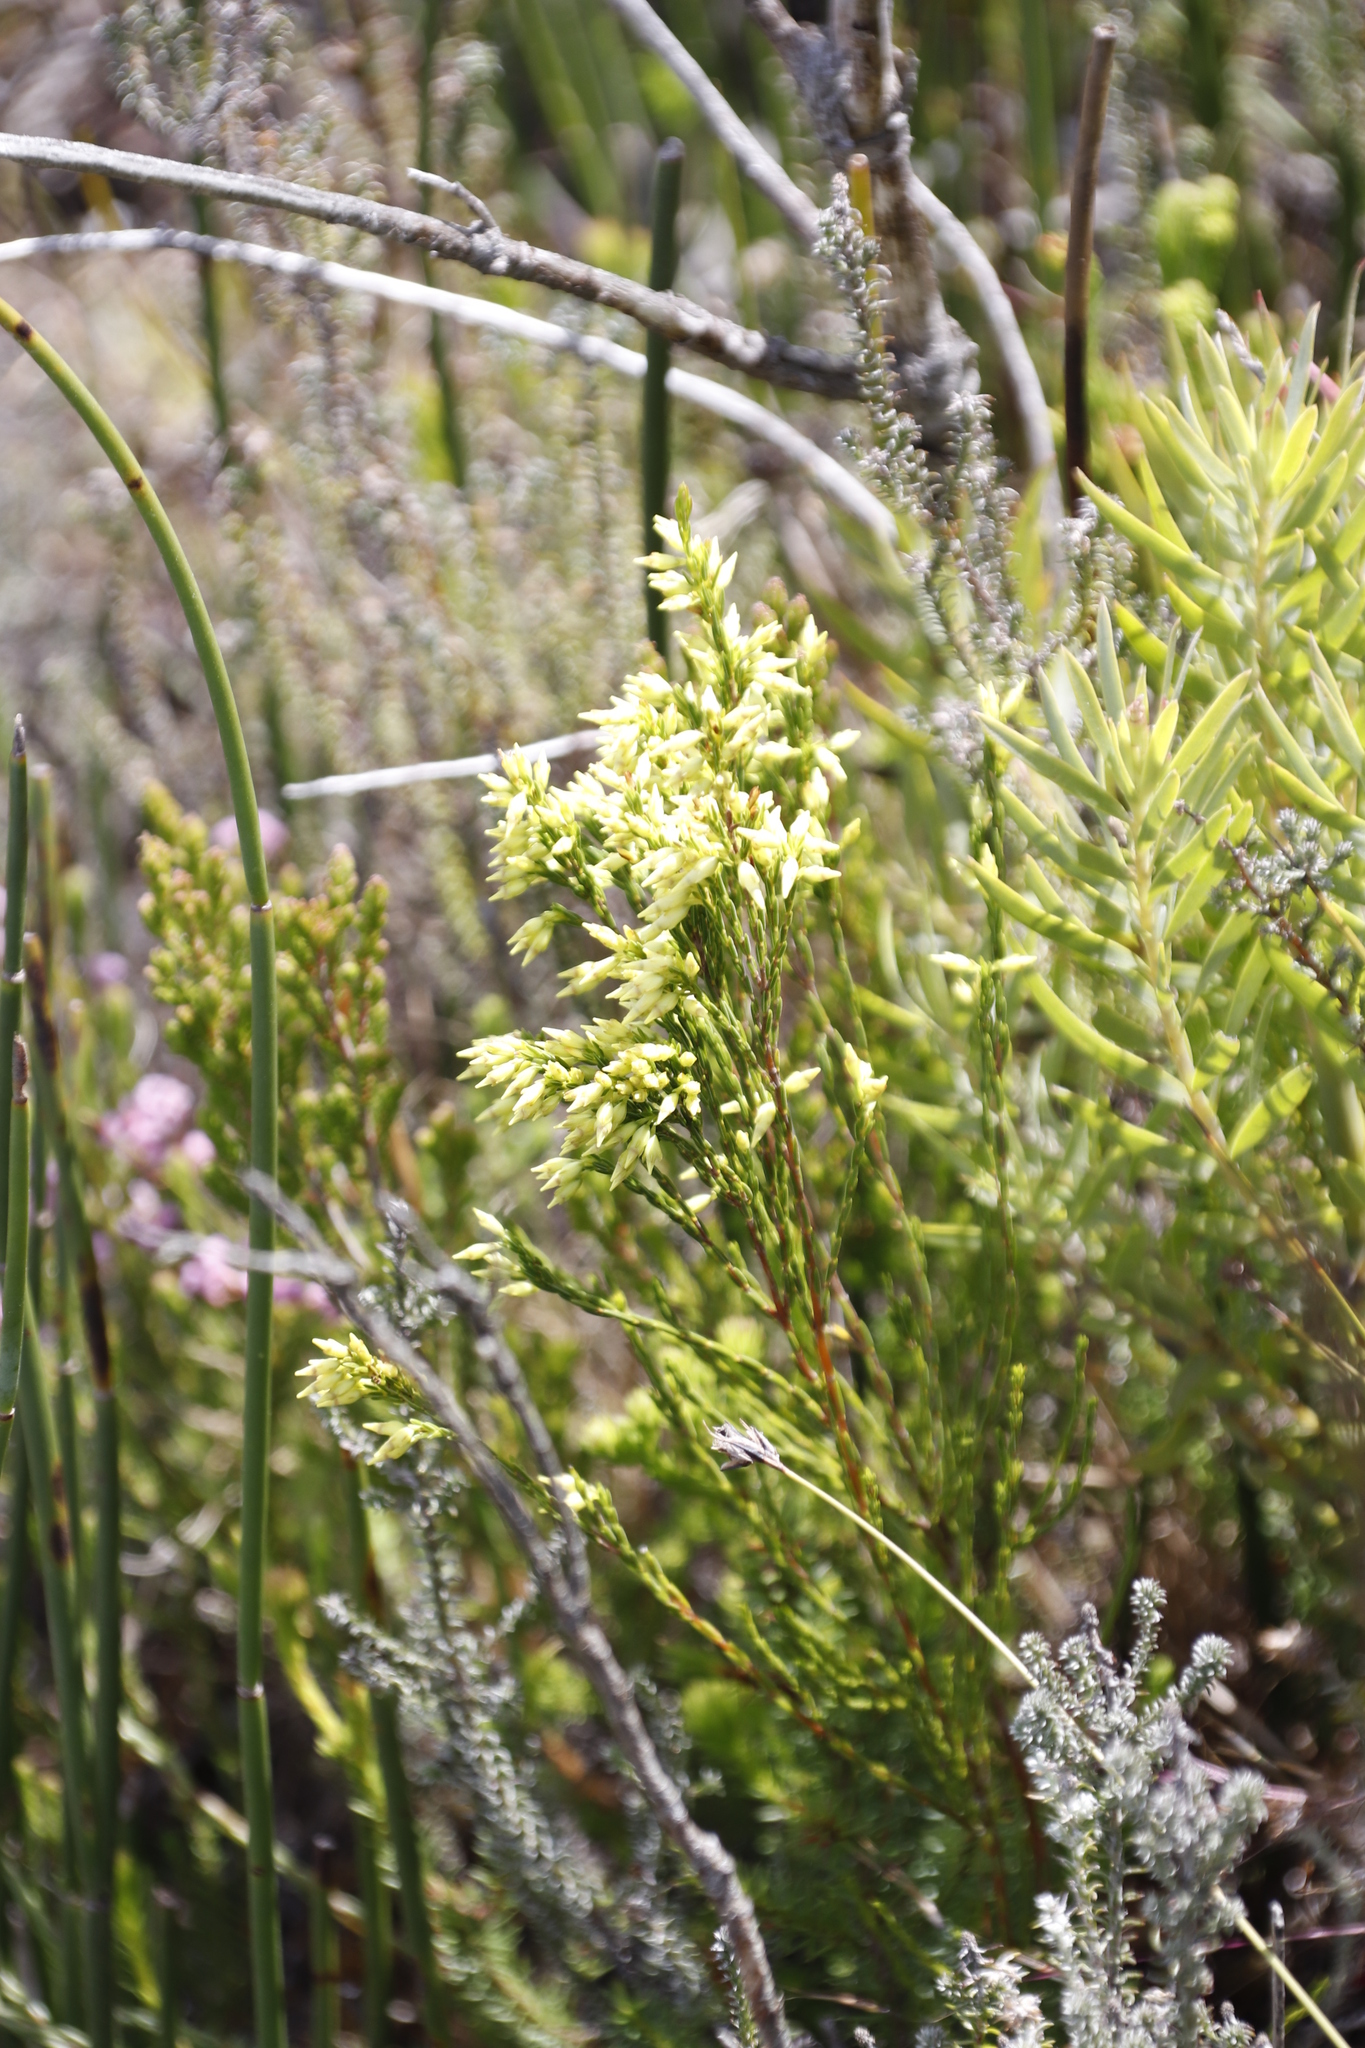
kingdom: Plantae
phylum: Tracheophyta
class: Magnoliopsida
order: Ericales
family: Ericaceae
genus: Erica
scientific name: Erica lutea
